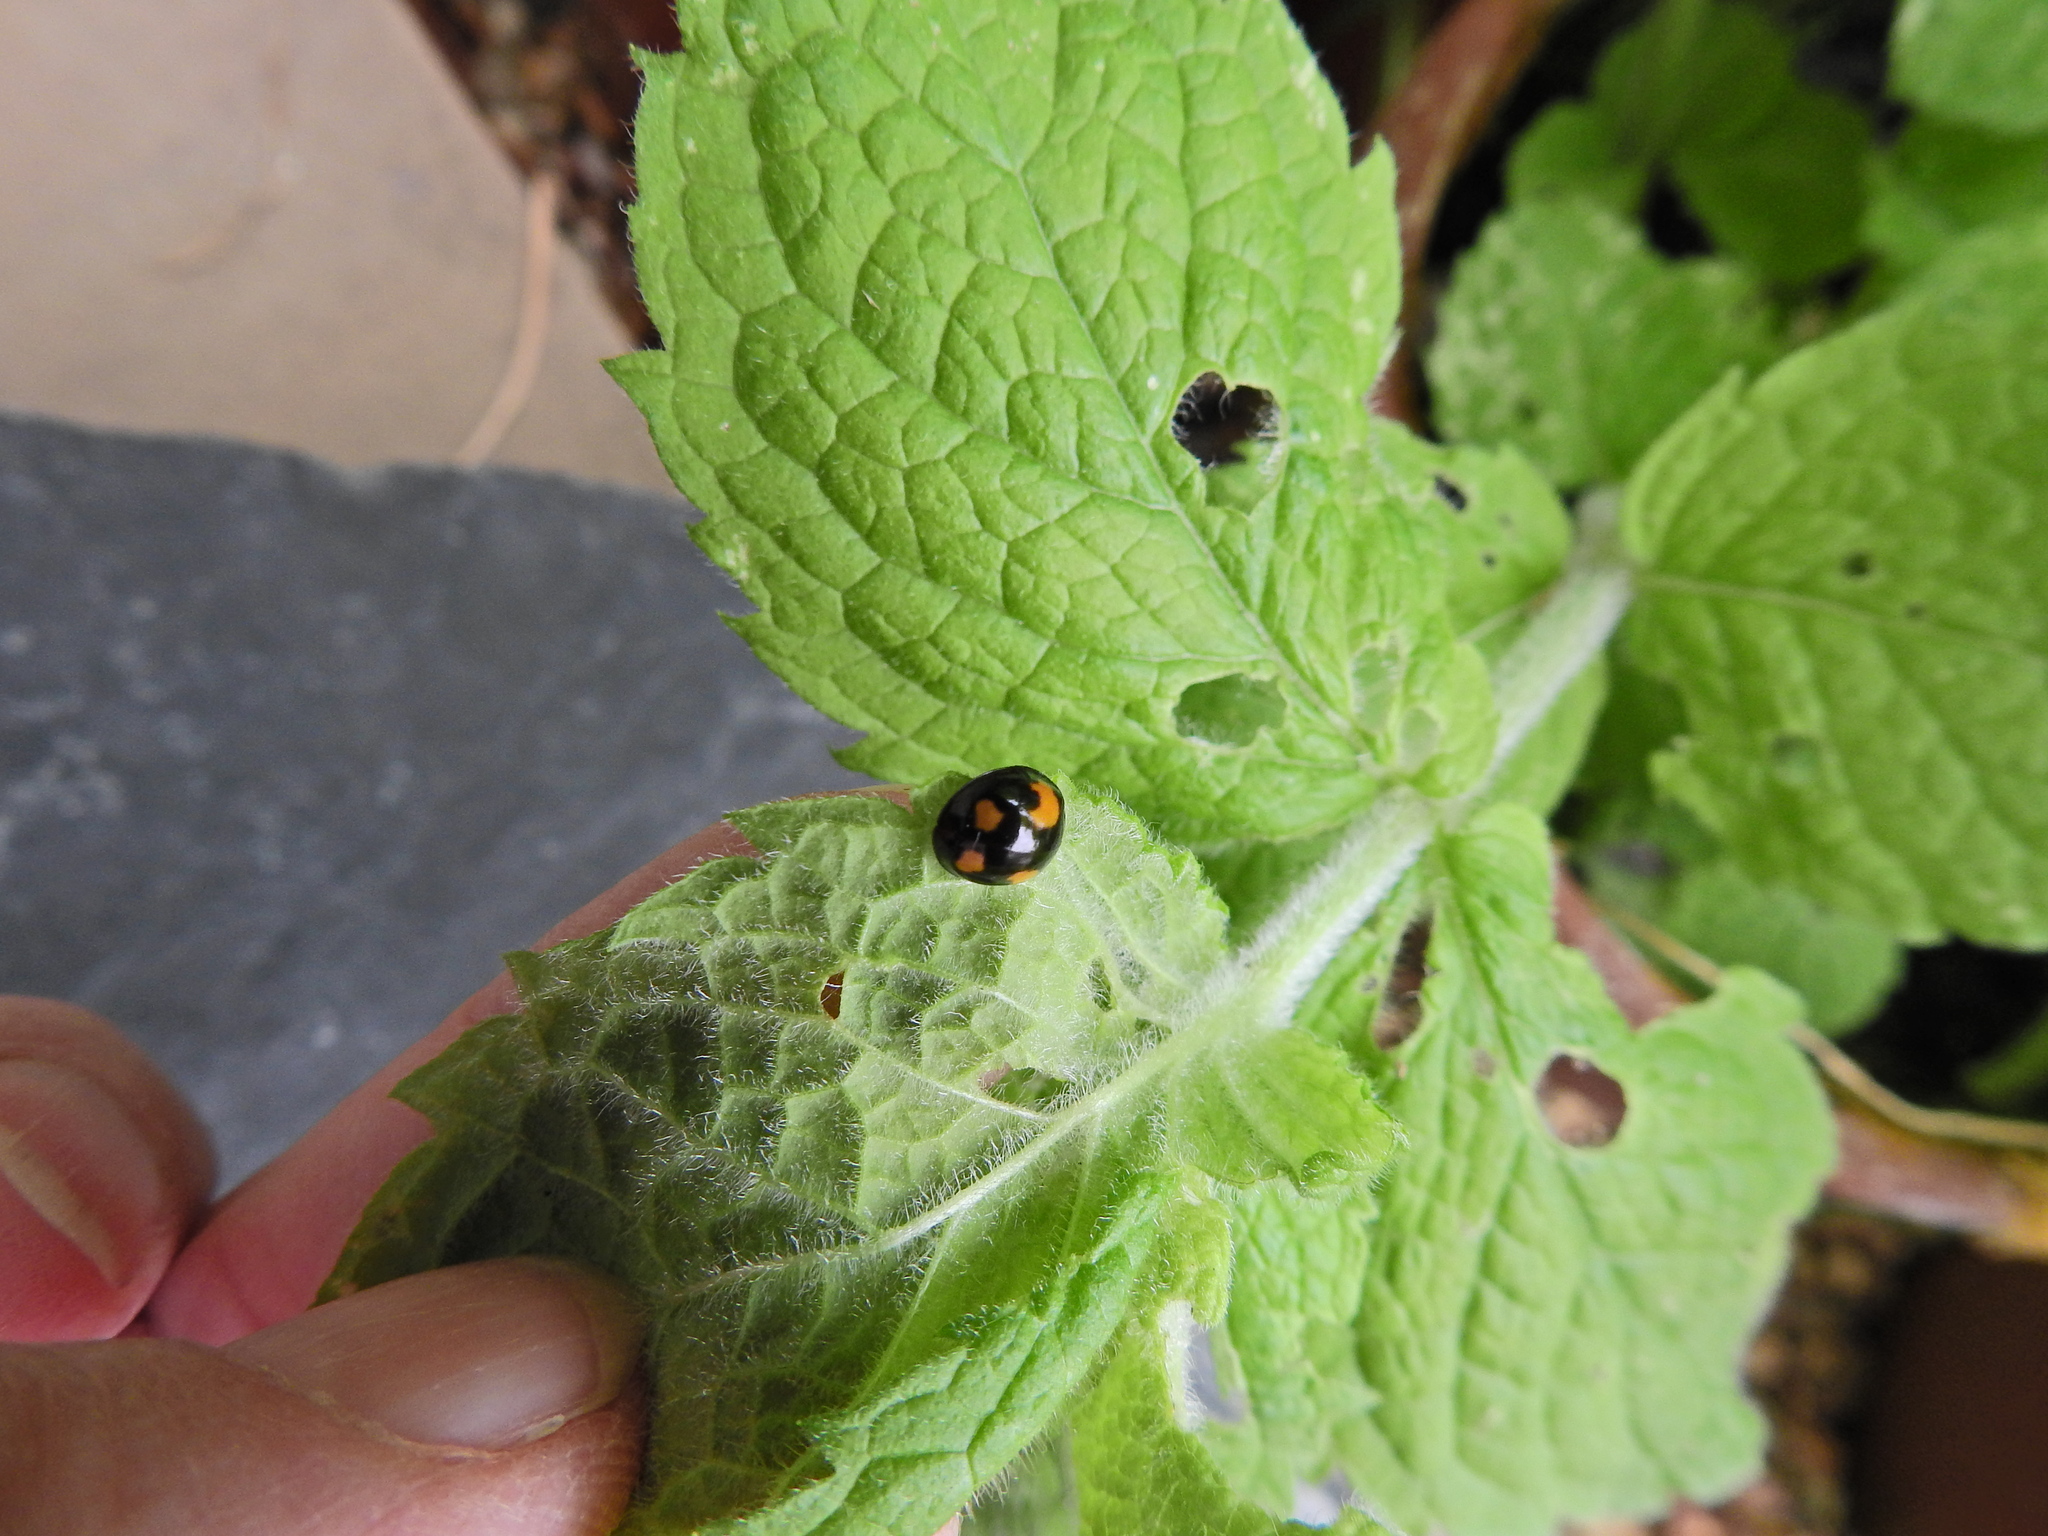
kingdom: Animalia
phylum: Arthropoda
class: Insecta
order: Coleoptera
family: Coccinellidae
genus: Harmonia
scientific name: Harmonia axyridis
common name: Harlequin ladybird
